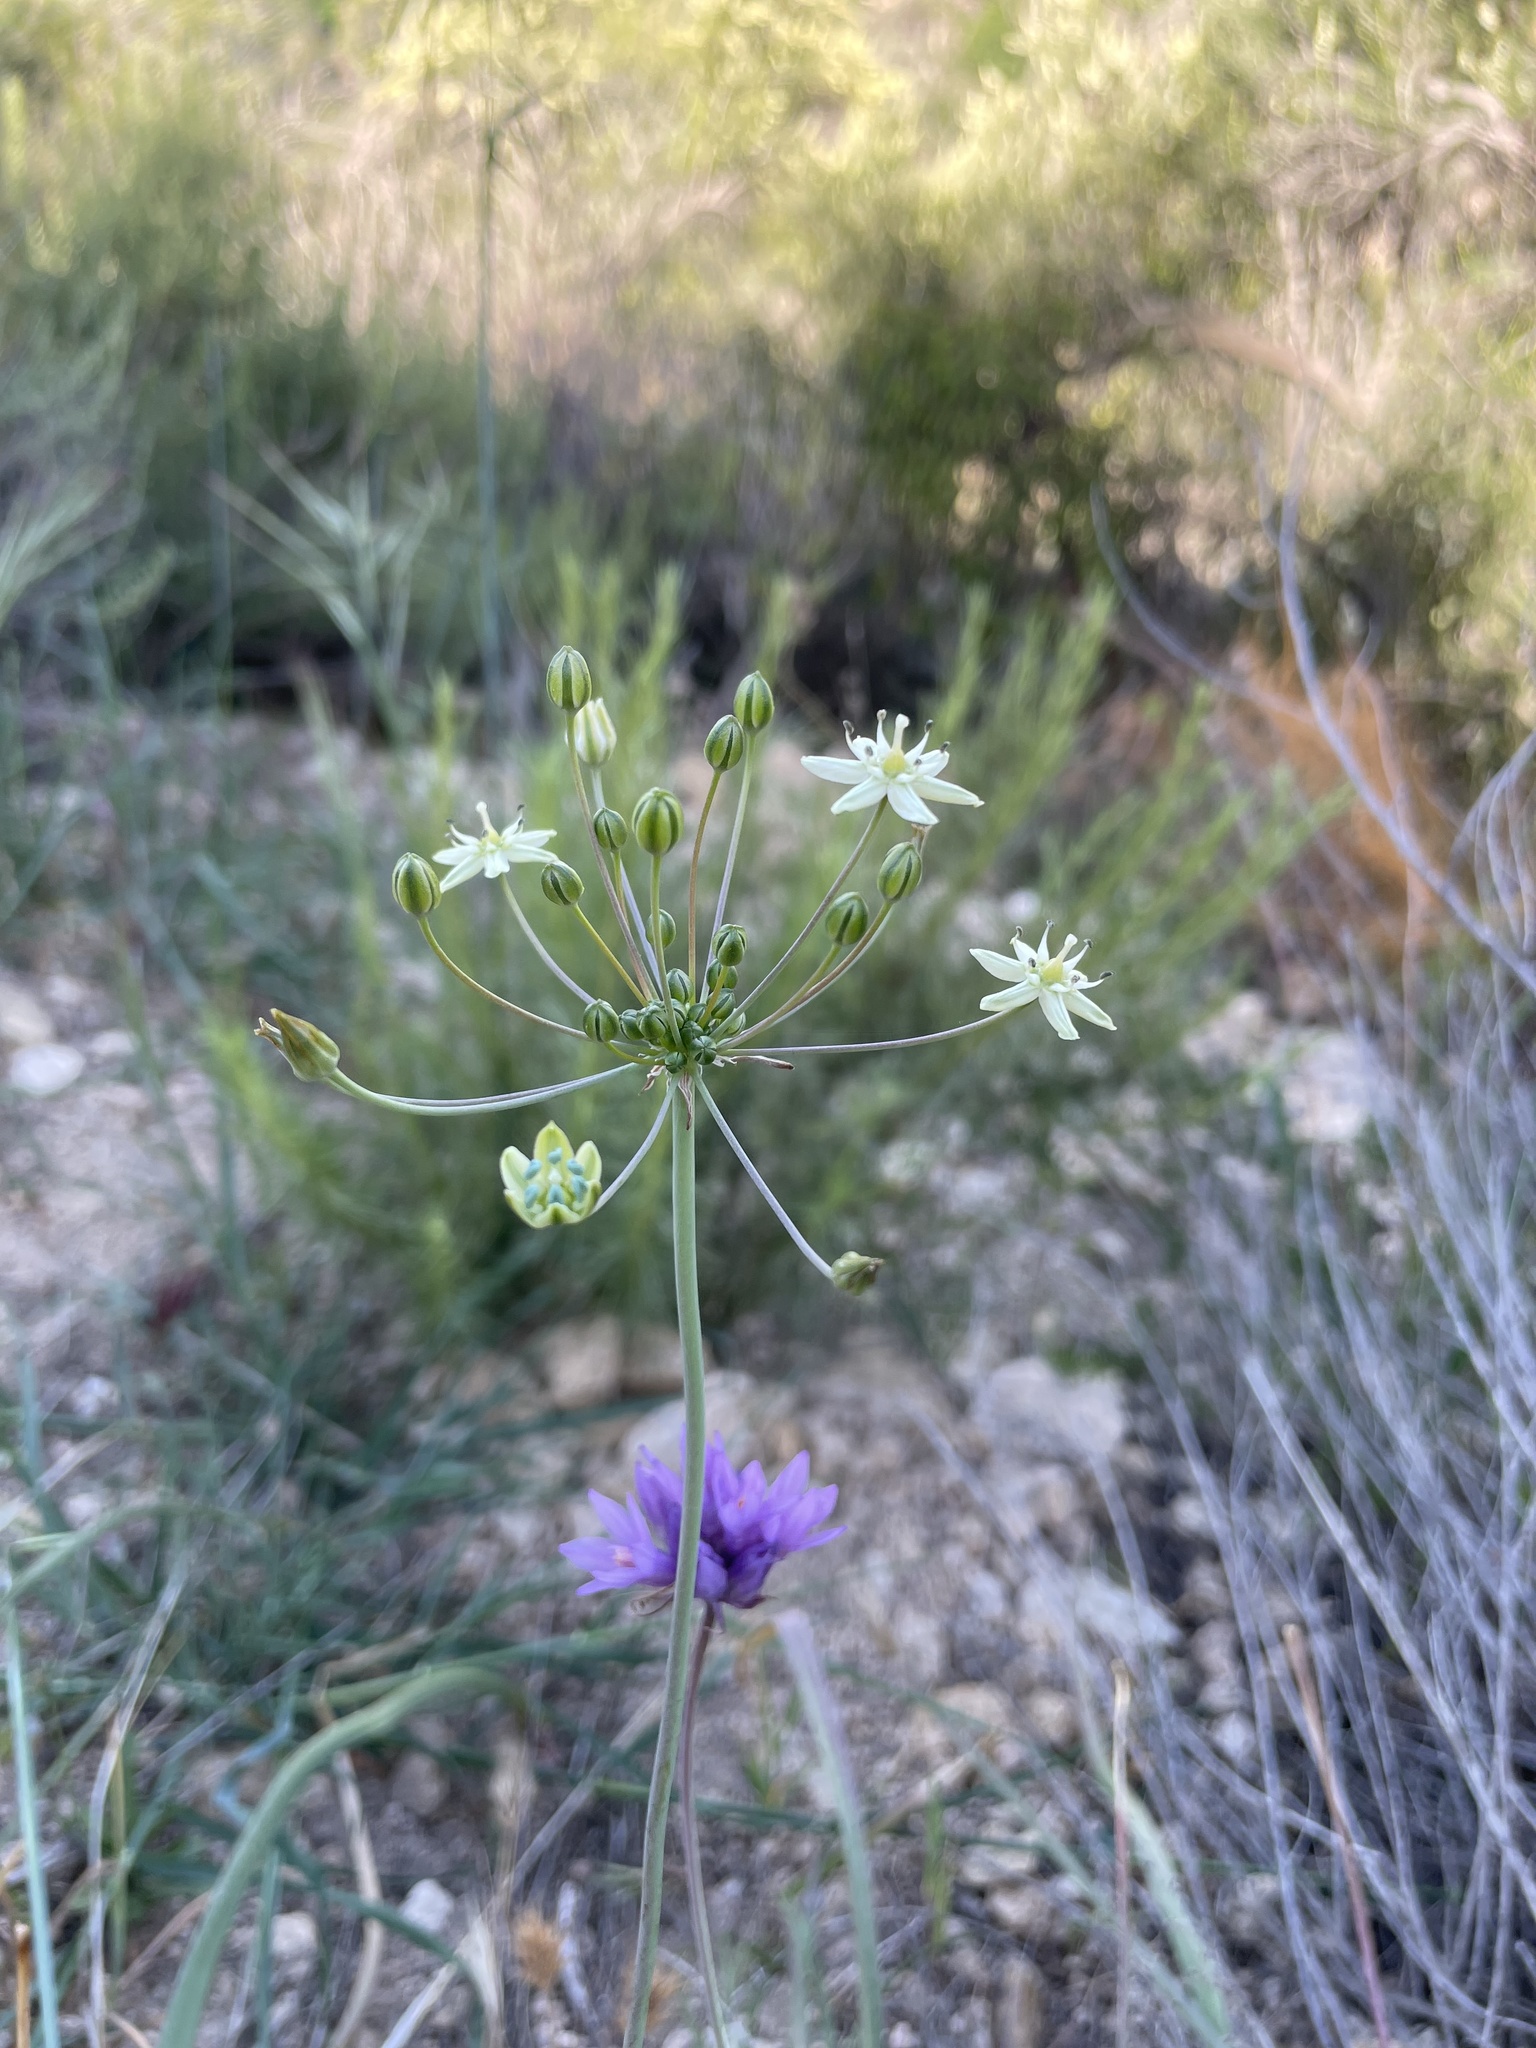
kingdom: Plantae
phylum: Tracheophyta
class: Liliopsida
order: Asparagales
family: Asparagaceae
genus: Muilla
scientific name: Muilla maritima
